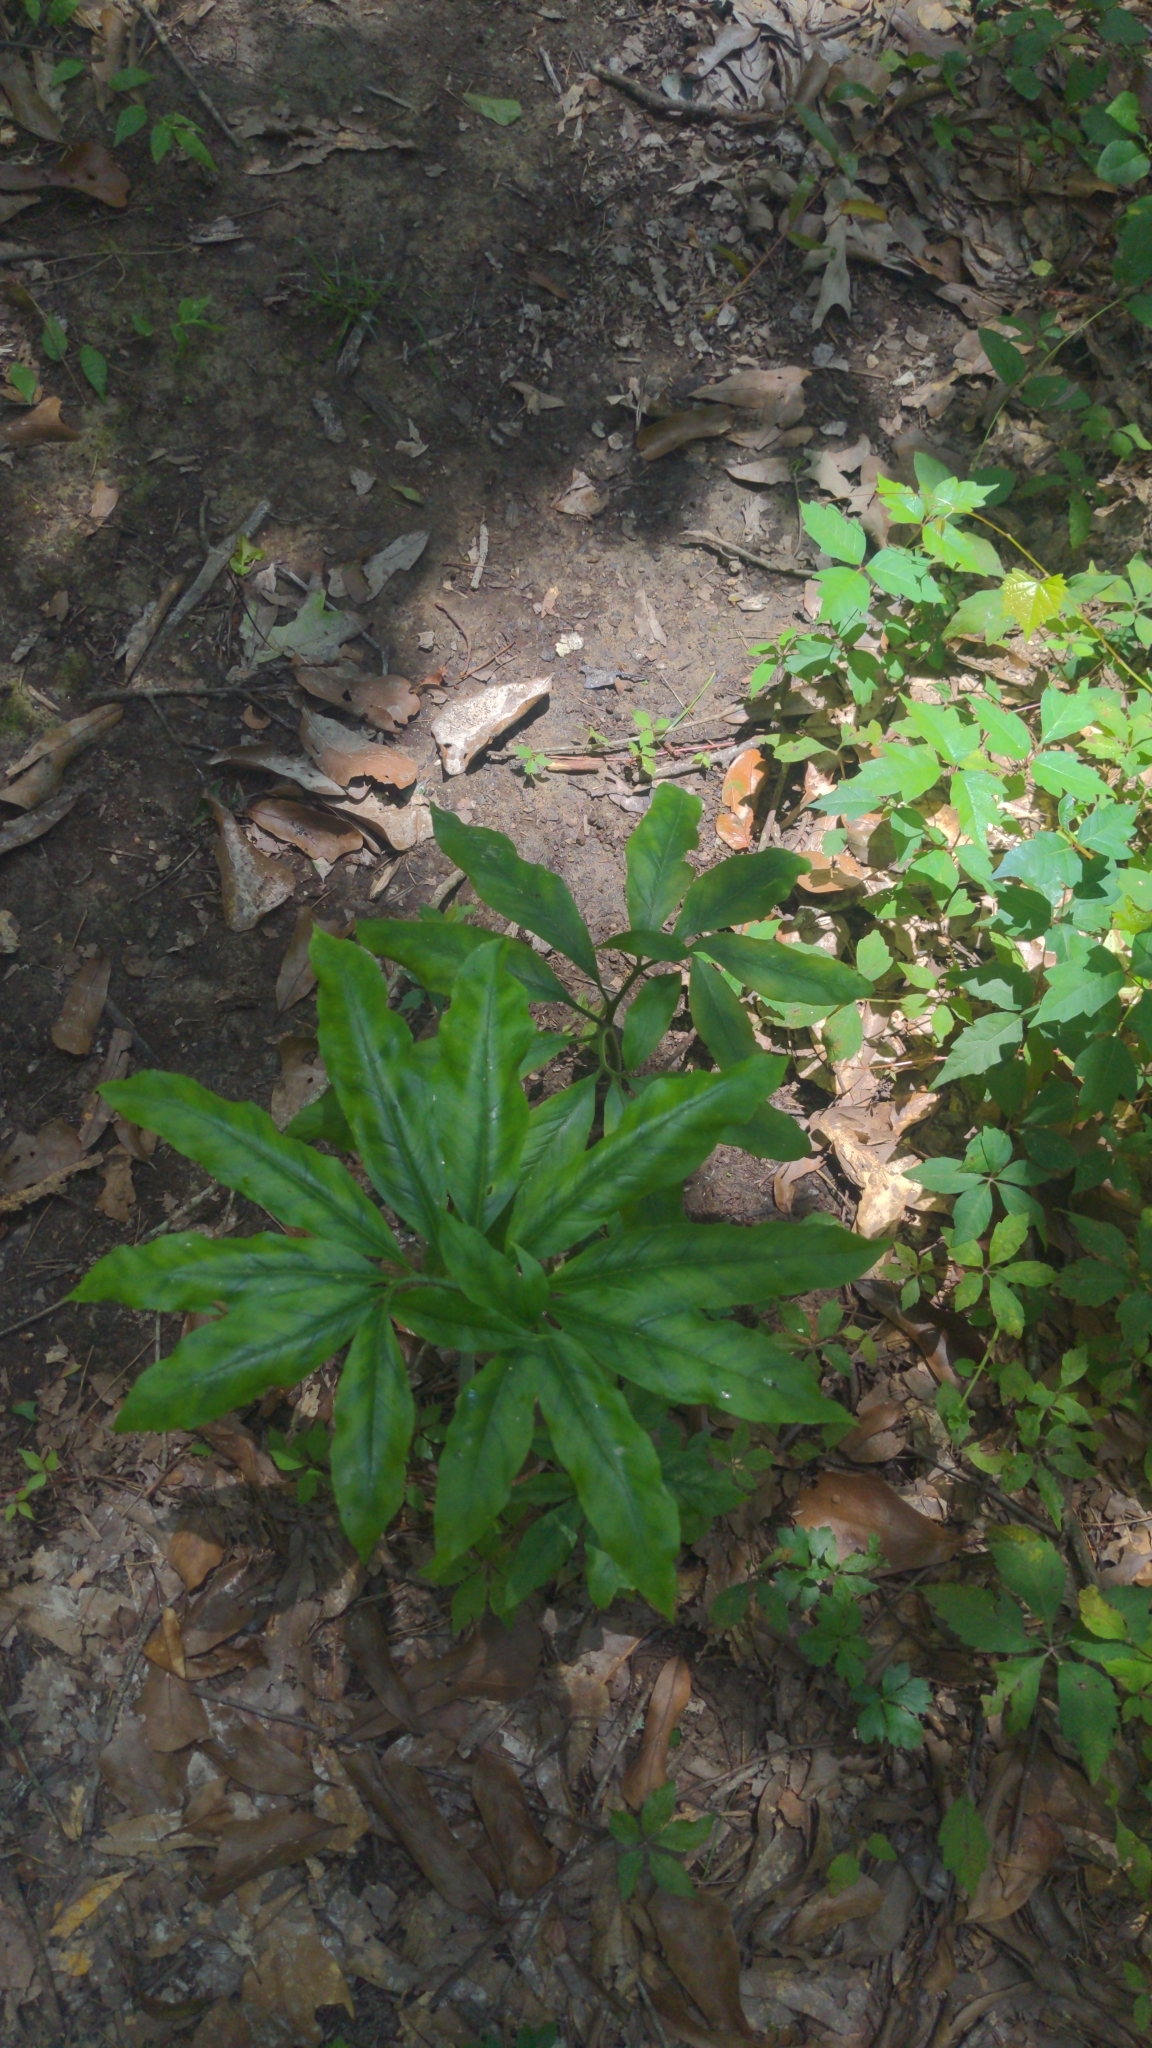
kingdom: Plantae
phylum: Tracheophyta
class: Liliopsida
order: Alismatales
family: Araceae
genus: Arisaema
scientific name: Arisaema dracontium
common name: Dragon-arum
